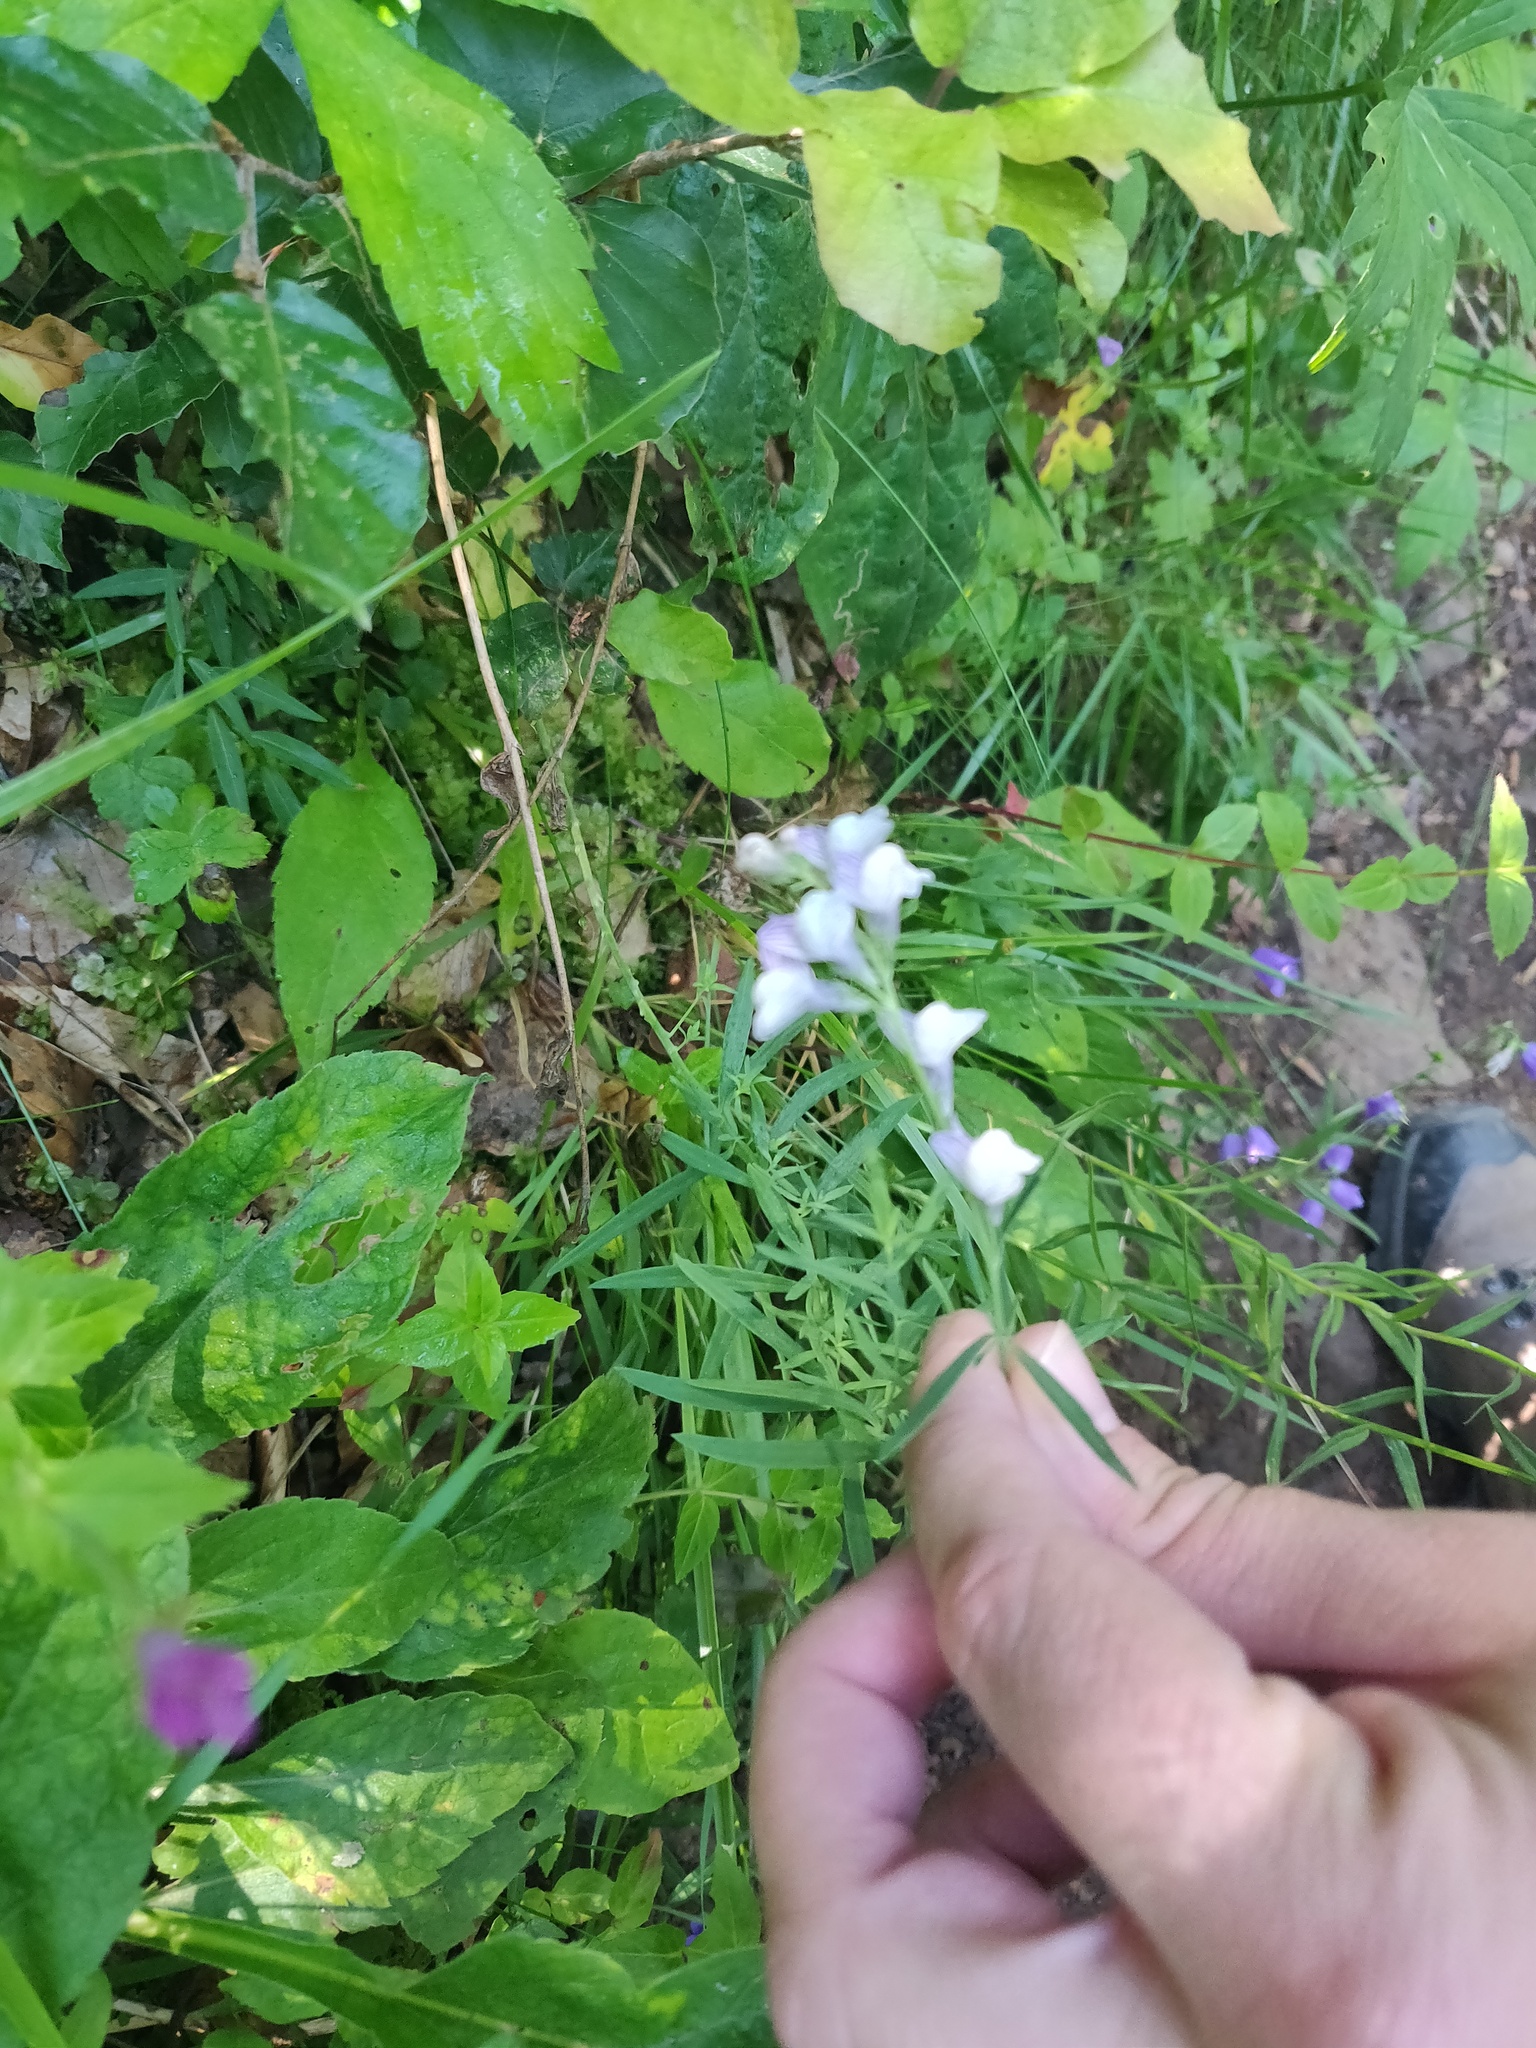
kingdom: Plantae
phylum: Tracheophyta
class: Magnoliopsida
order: Lamiales
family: Plantaginaceae
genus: Linaria
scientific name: Linaria repens
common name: Pale toadflax
